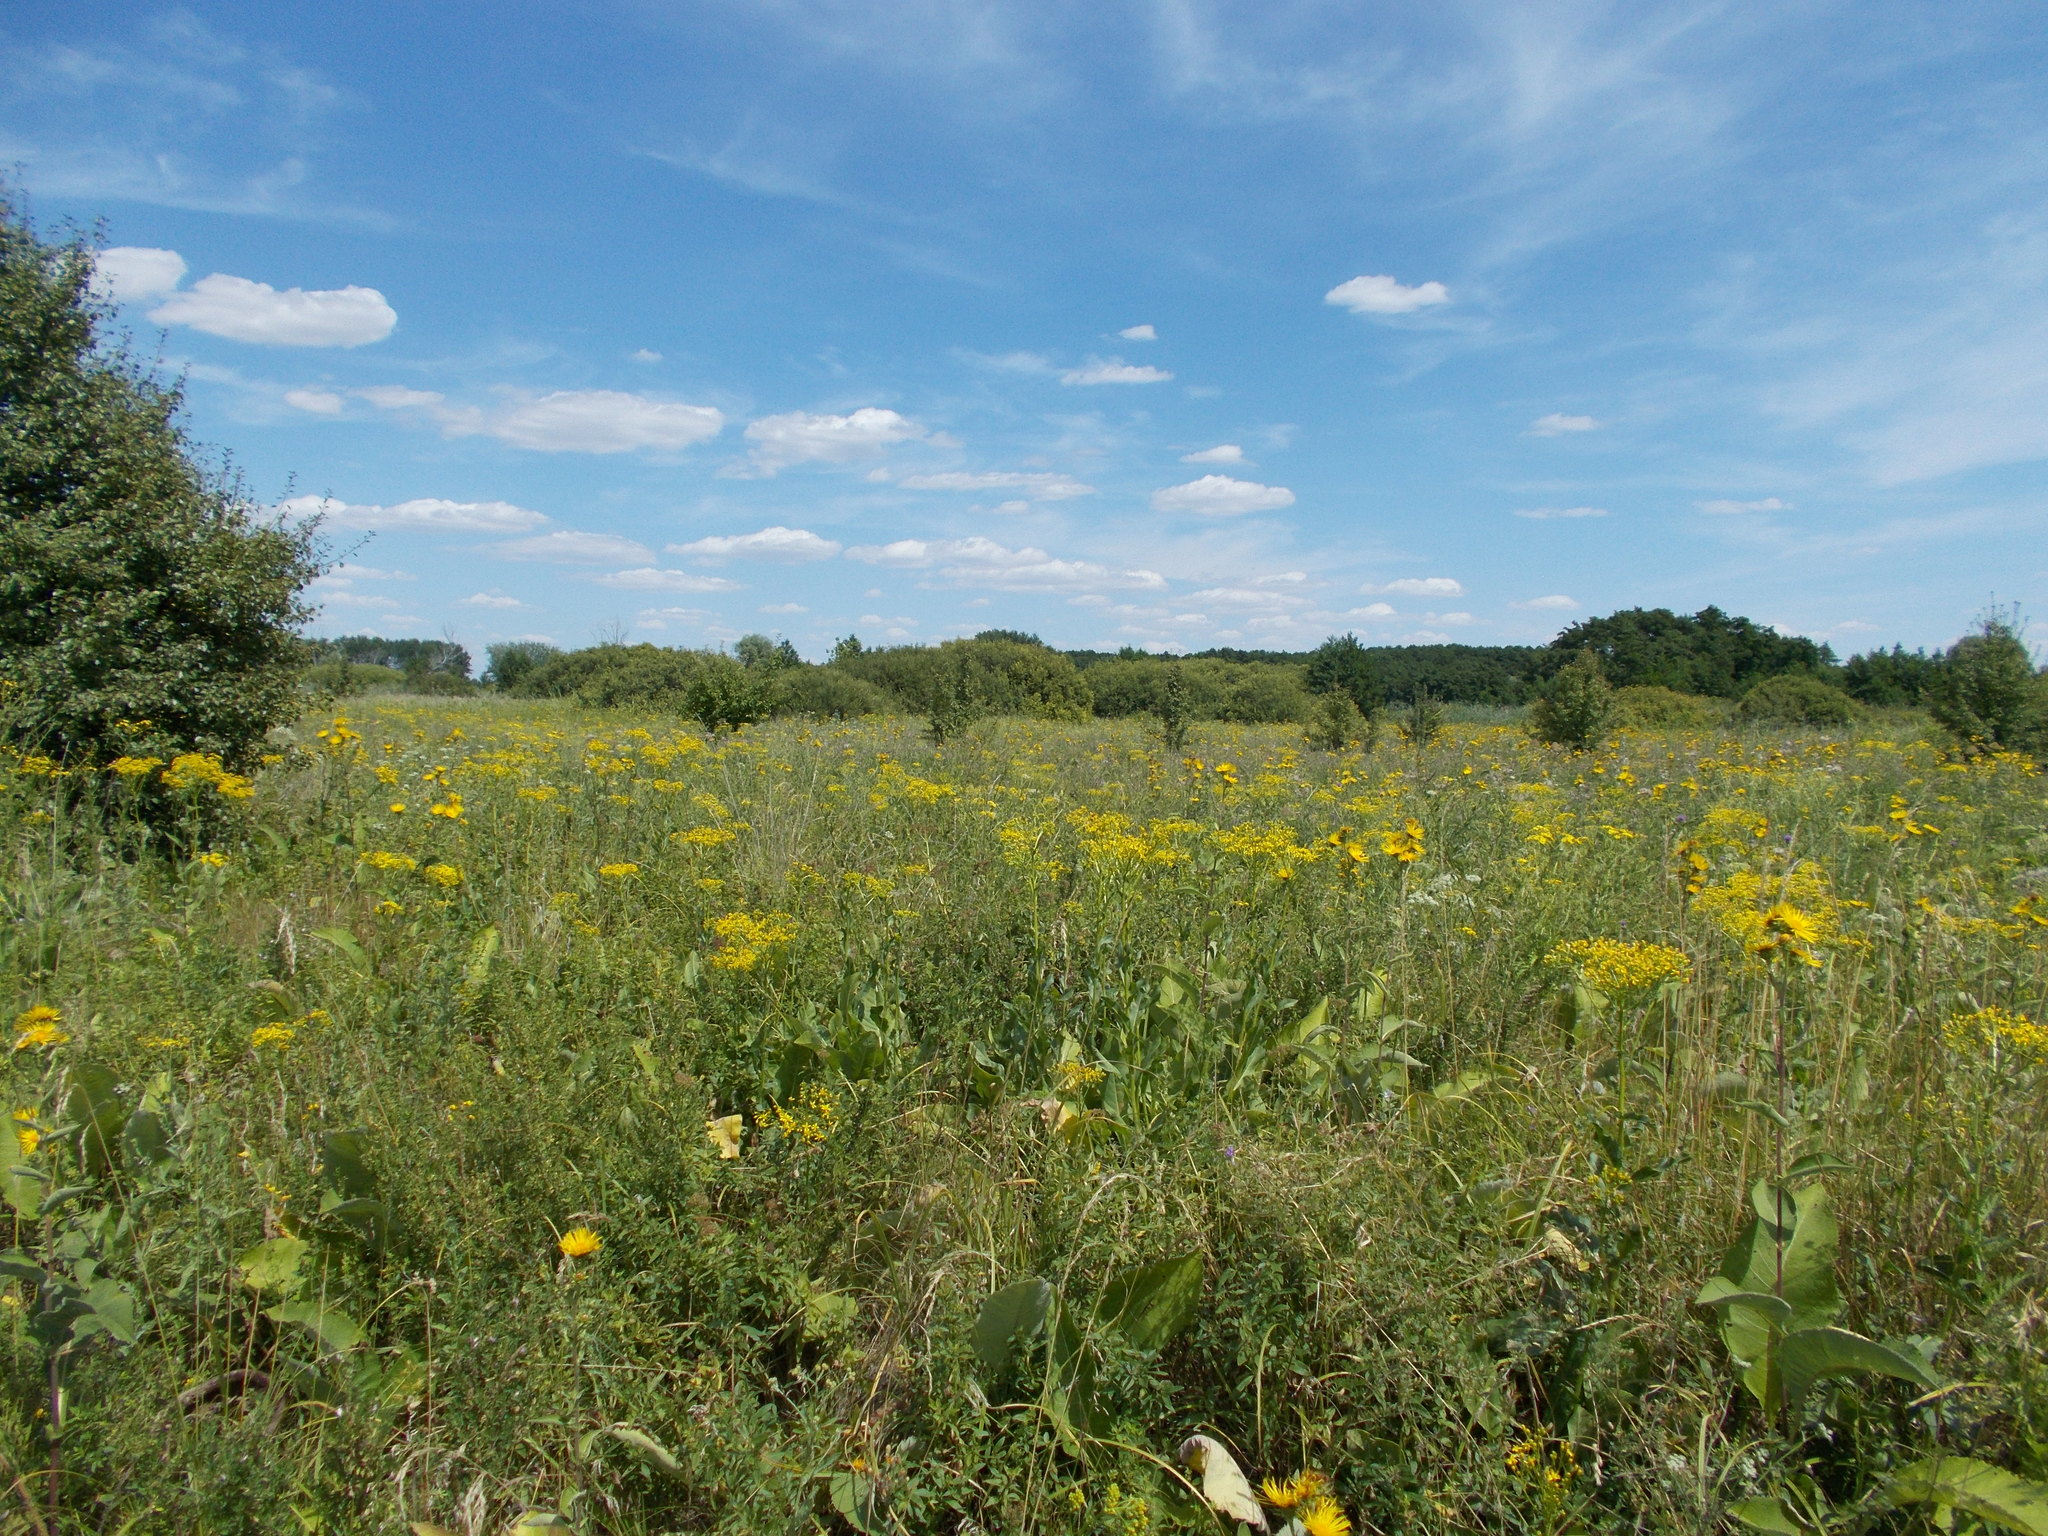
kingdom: Plantae
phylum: Tracheophyta
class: Magnoliopsida
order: Asterales
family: Asteraceae
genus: Senecio
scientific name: Senecio doria
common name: Golden ragwort
